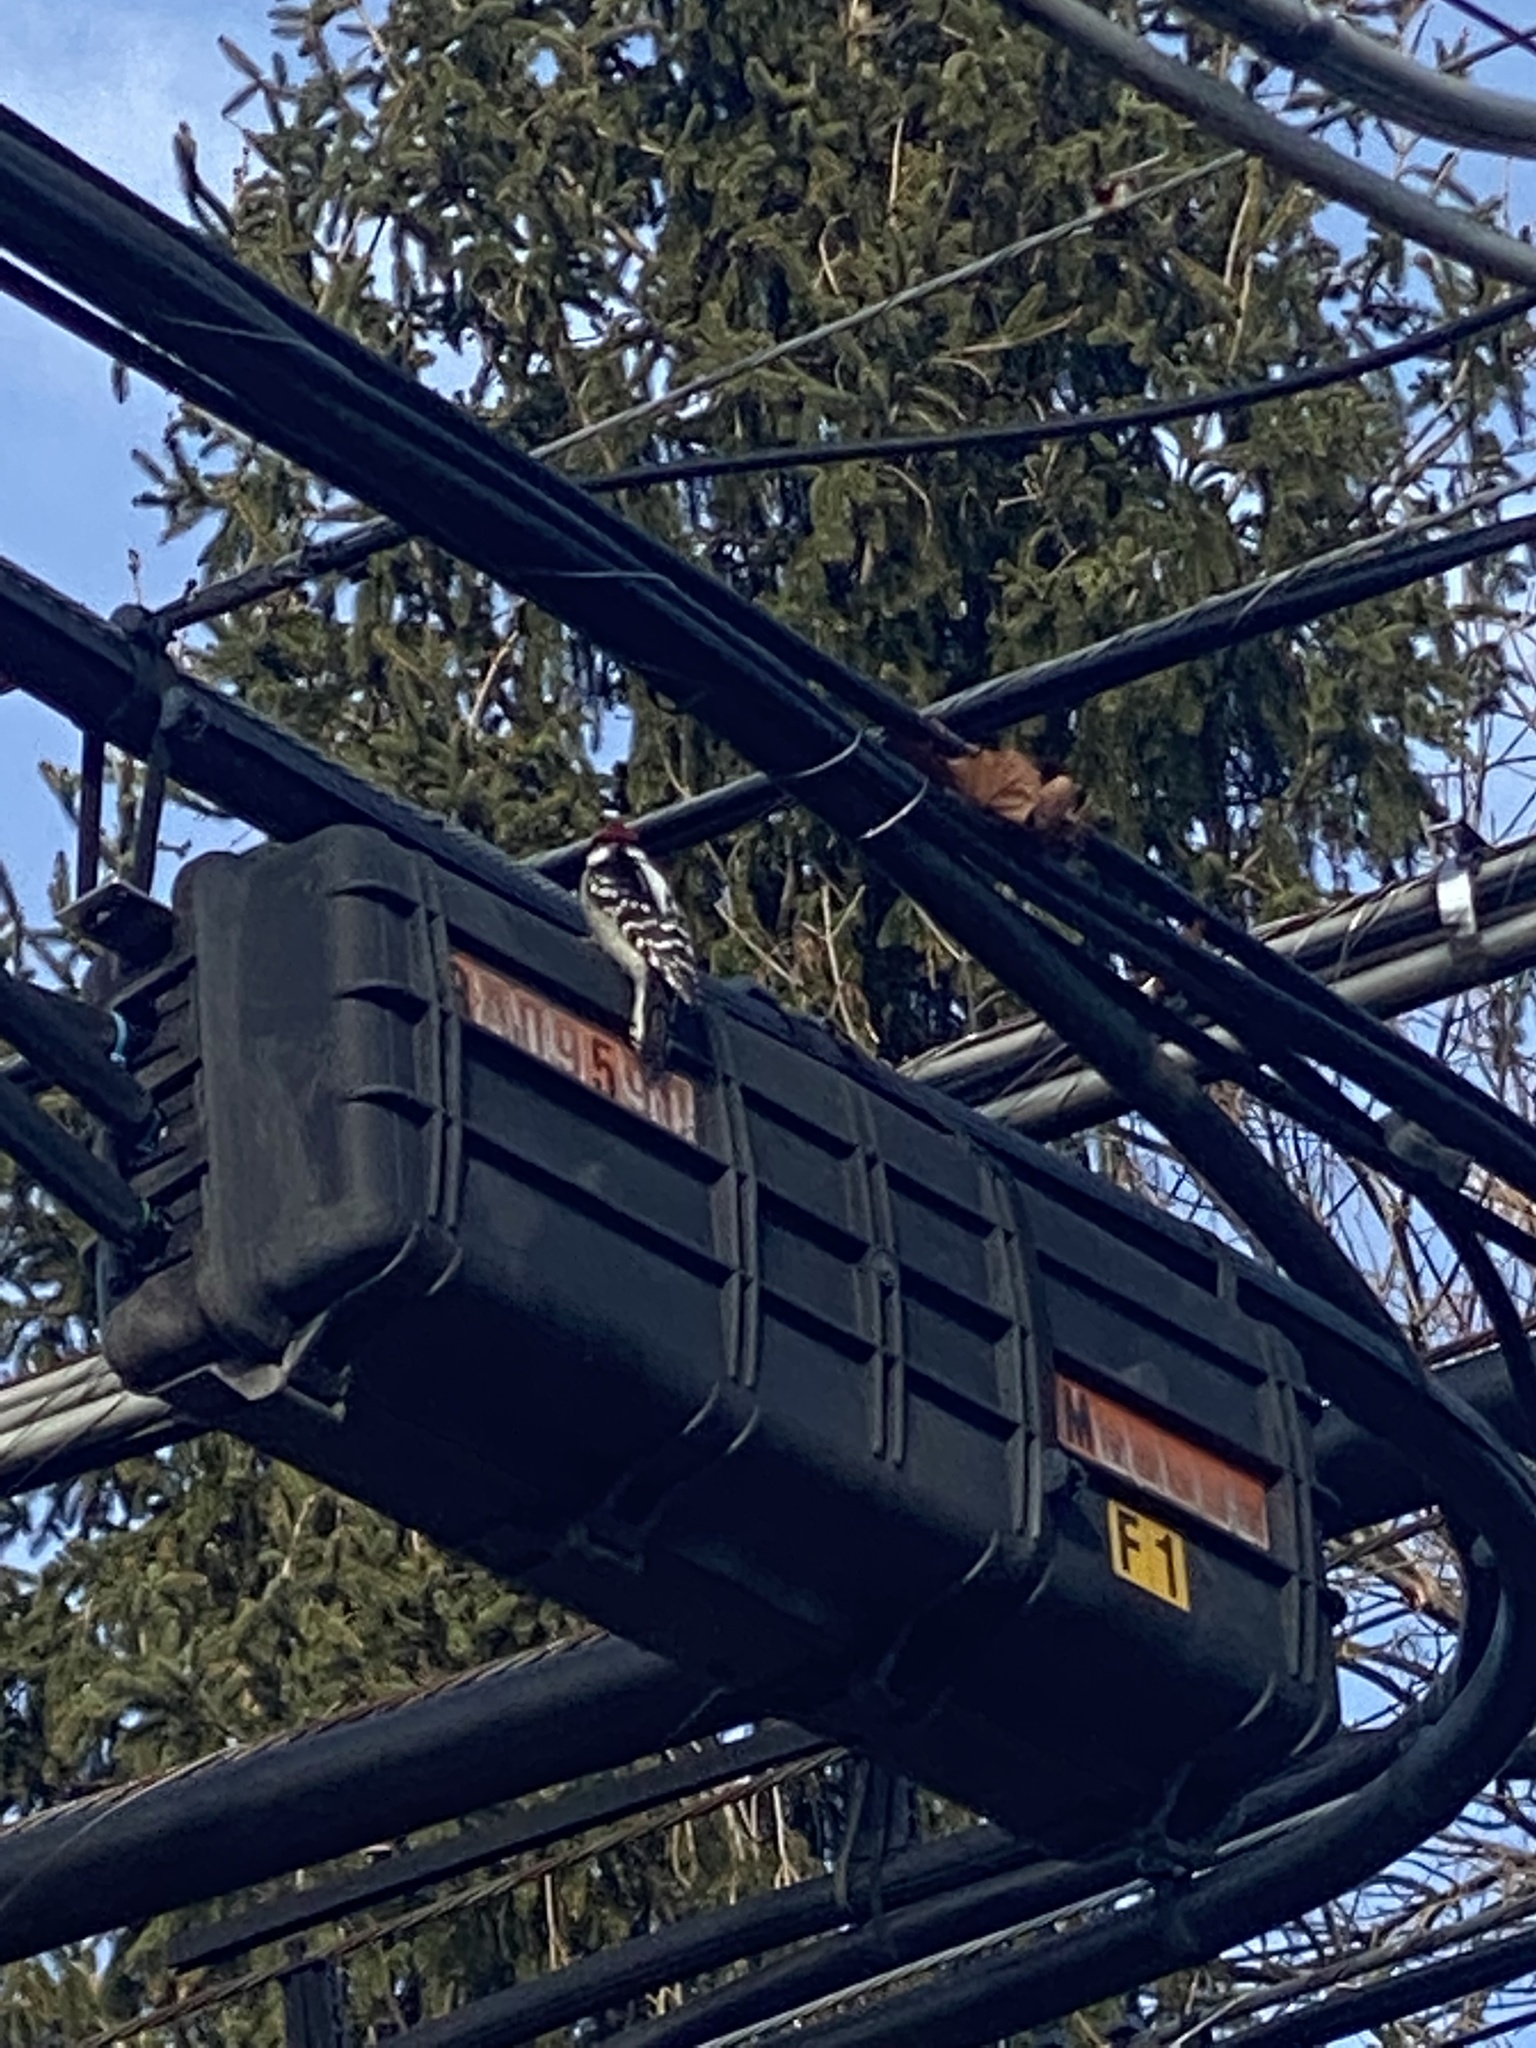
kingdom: Animalia
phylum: Chordata
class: Aves
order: Piciformes
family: Picidae
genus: Dryobates
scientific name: Dryobates pubescens
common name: Downy woodpecker
